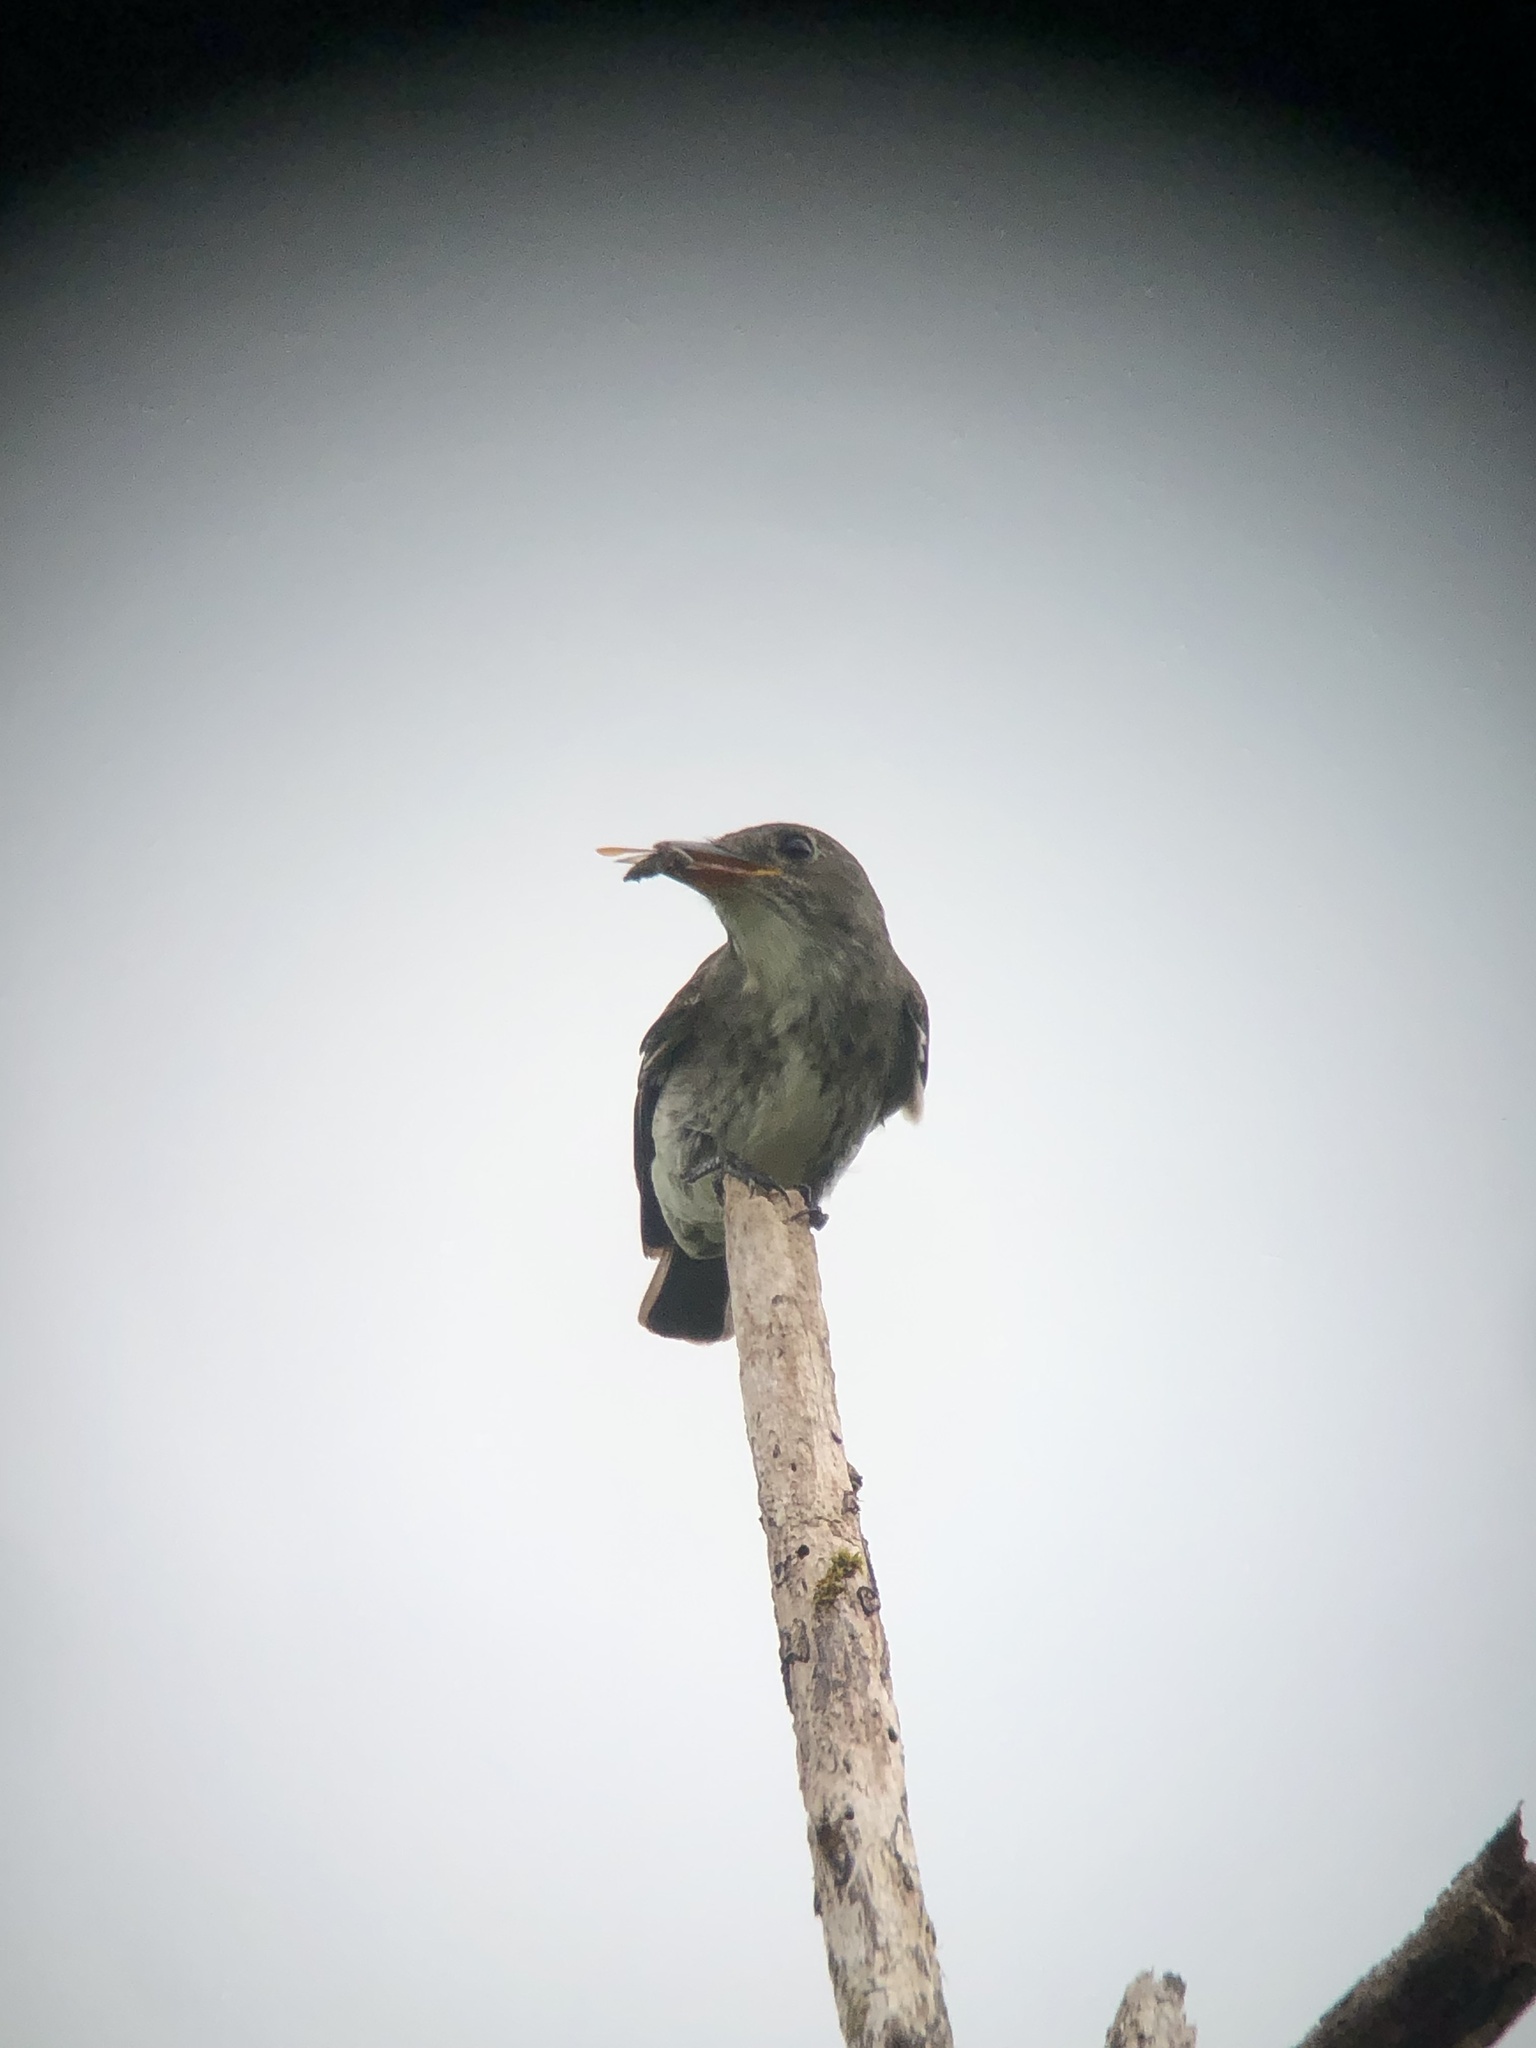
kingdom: Animalia
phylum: Chordata
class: Aves
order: Passeriformes
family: Tyrannidae
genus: Contopus
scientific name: Contopus cooperi
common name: Olive-sided flycatcher
